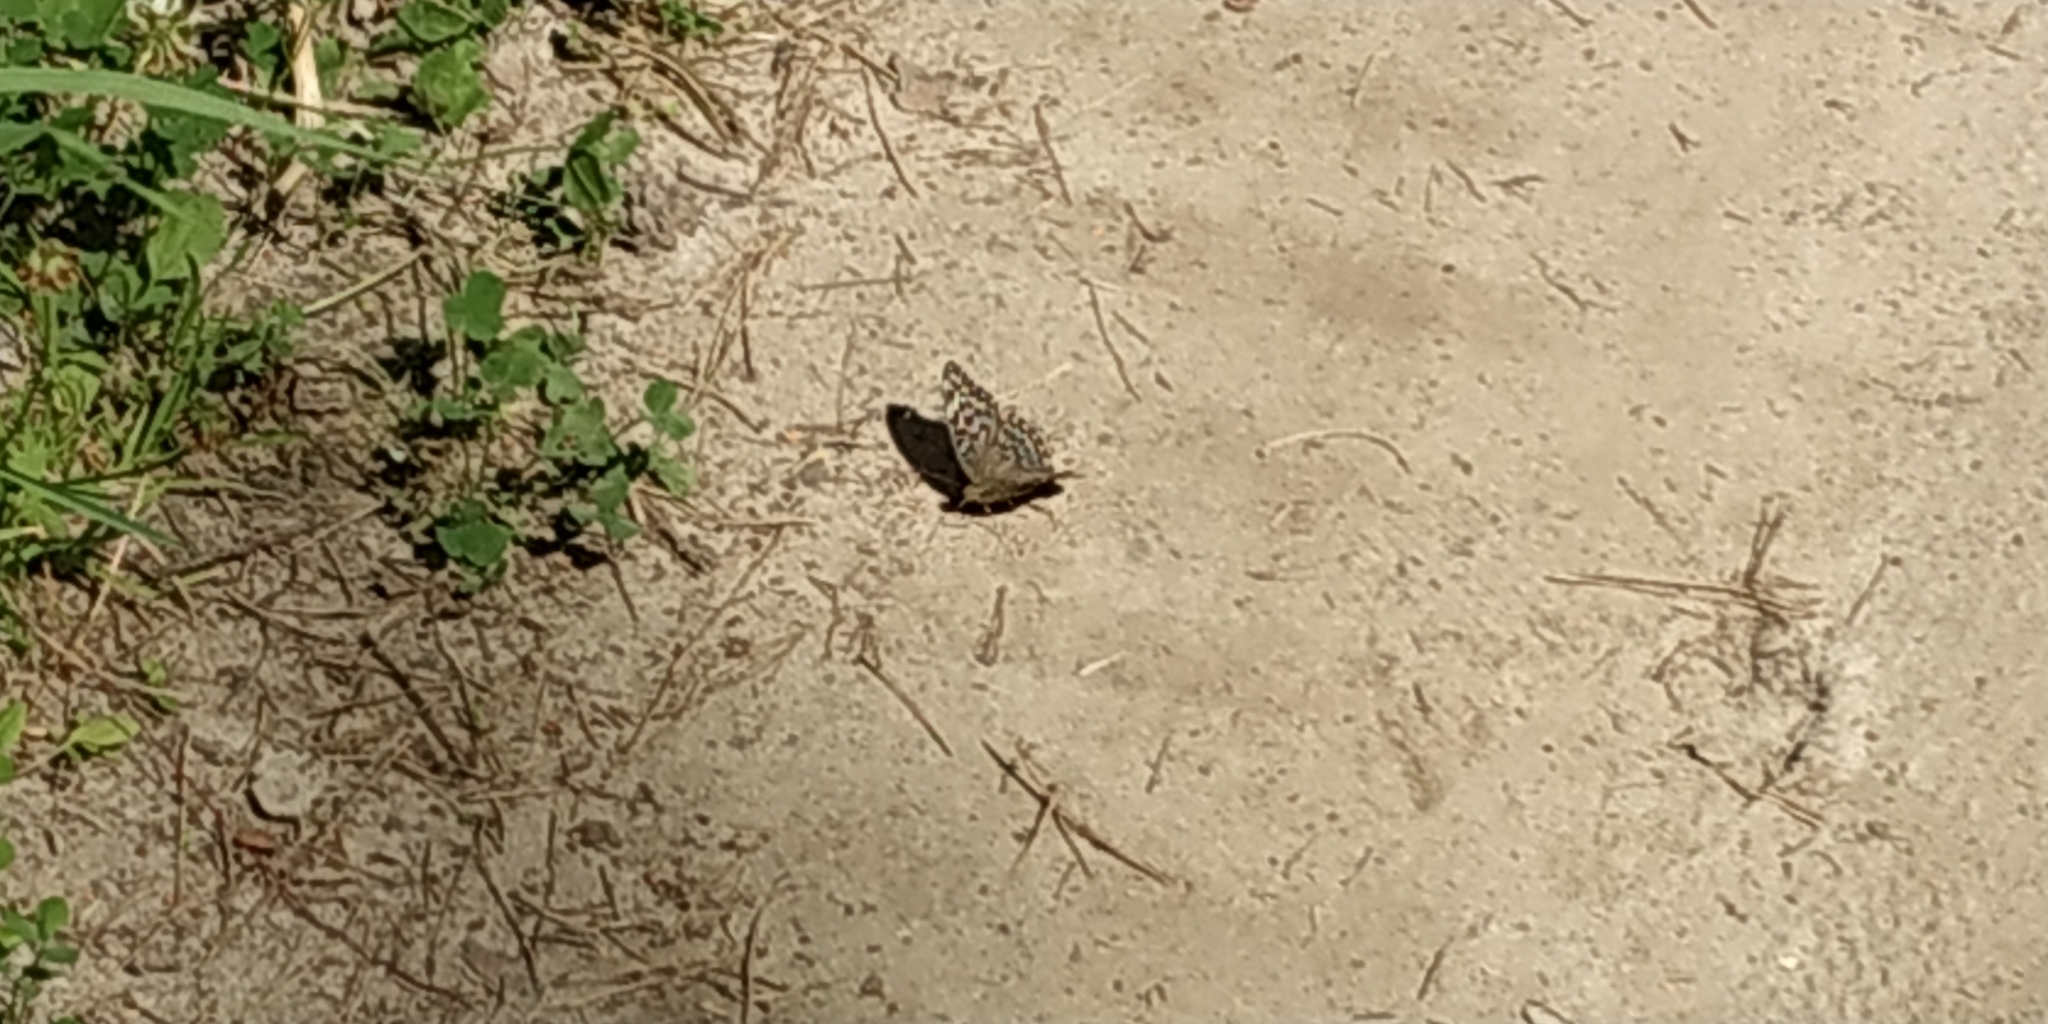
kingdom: Animalia
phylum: Arthropoda
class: Insecta
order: Lepidoptera
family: Nymphalidae
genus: Argynnis
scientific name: Argynnis paphia
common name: Silver-washed fritillary
